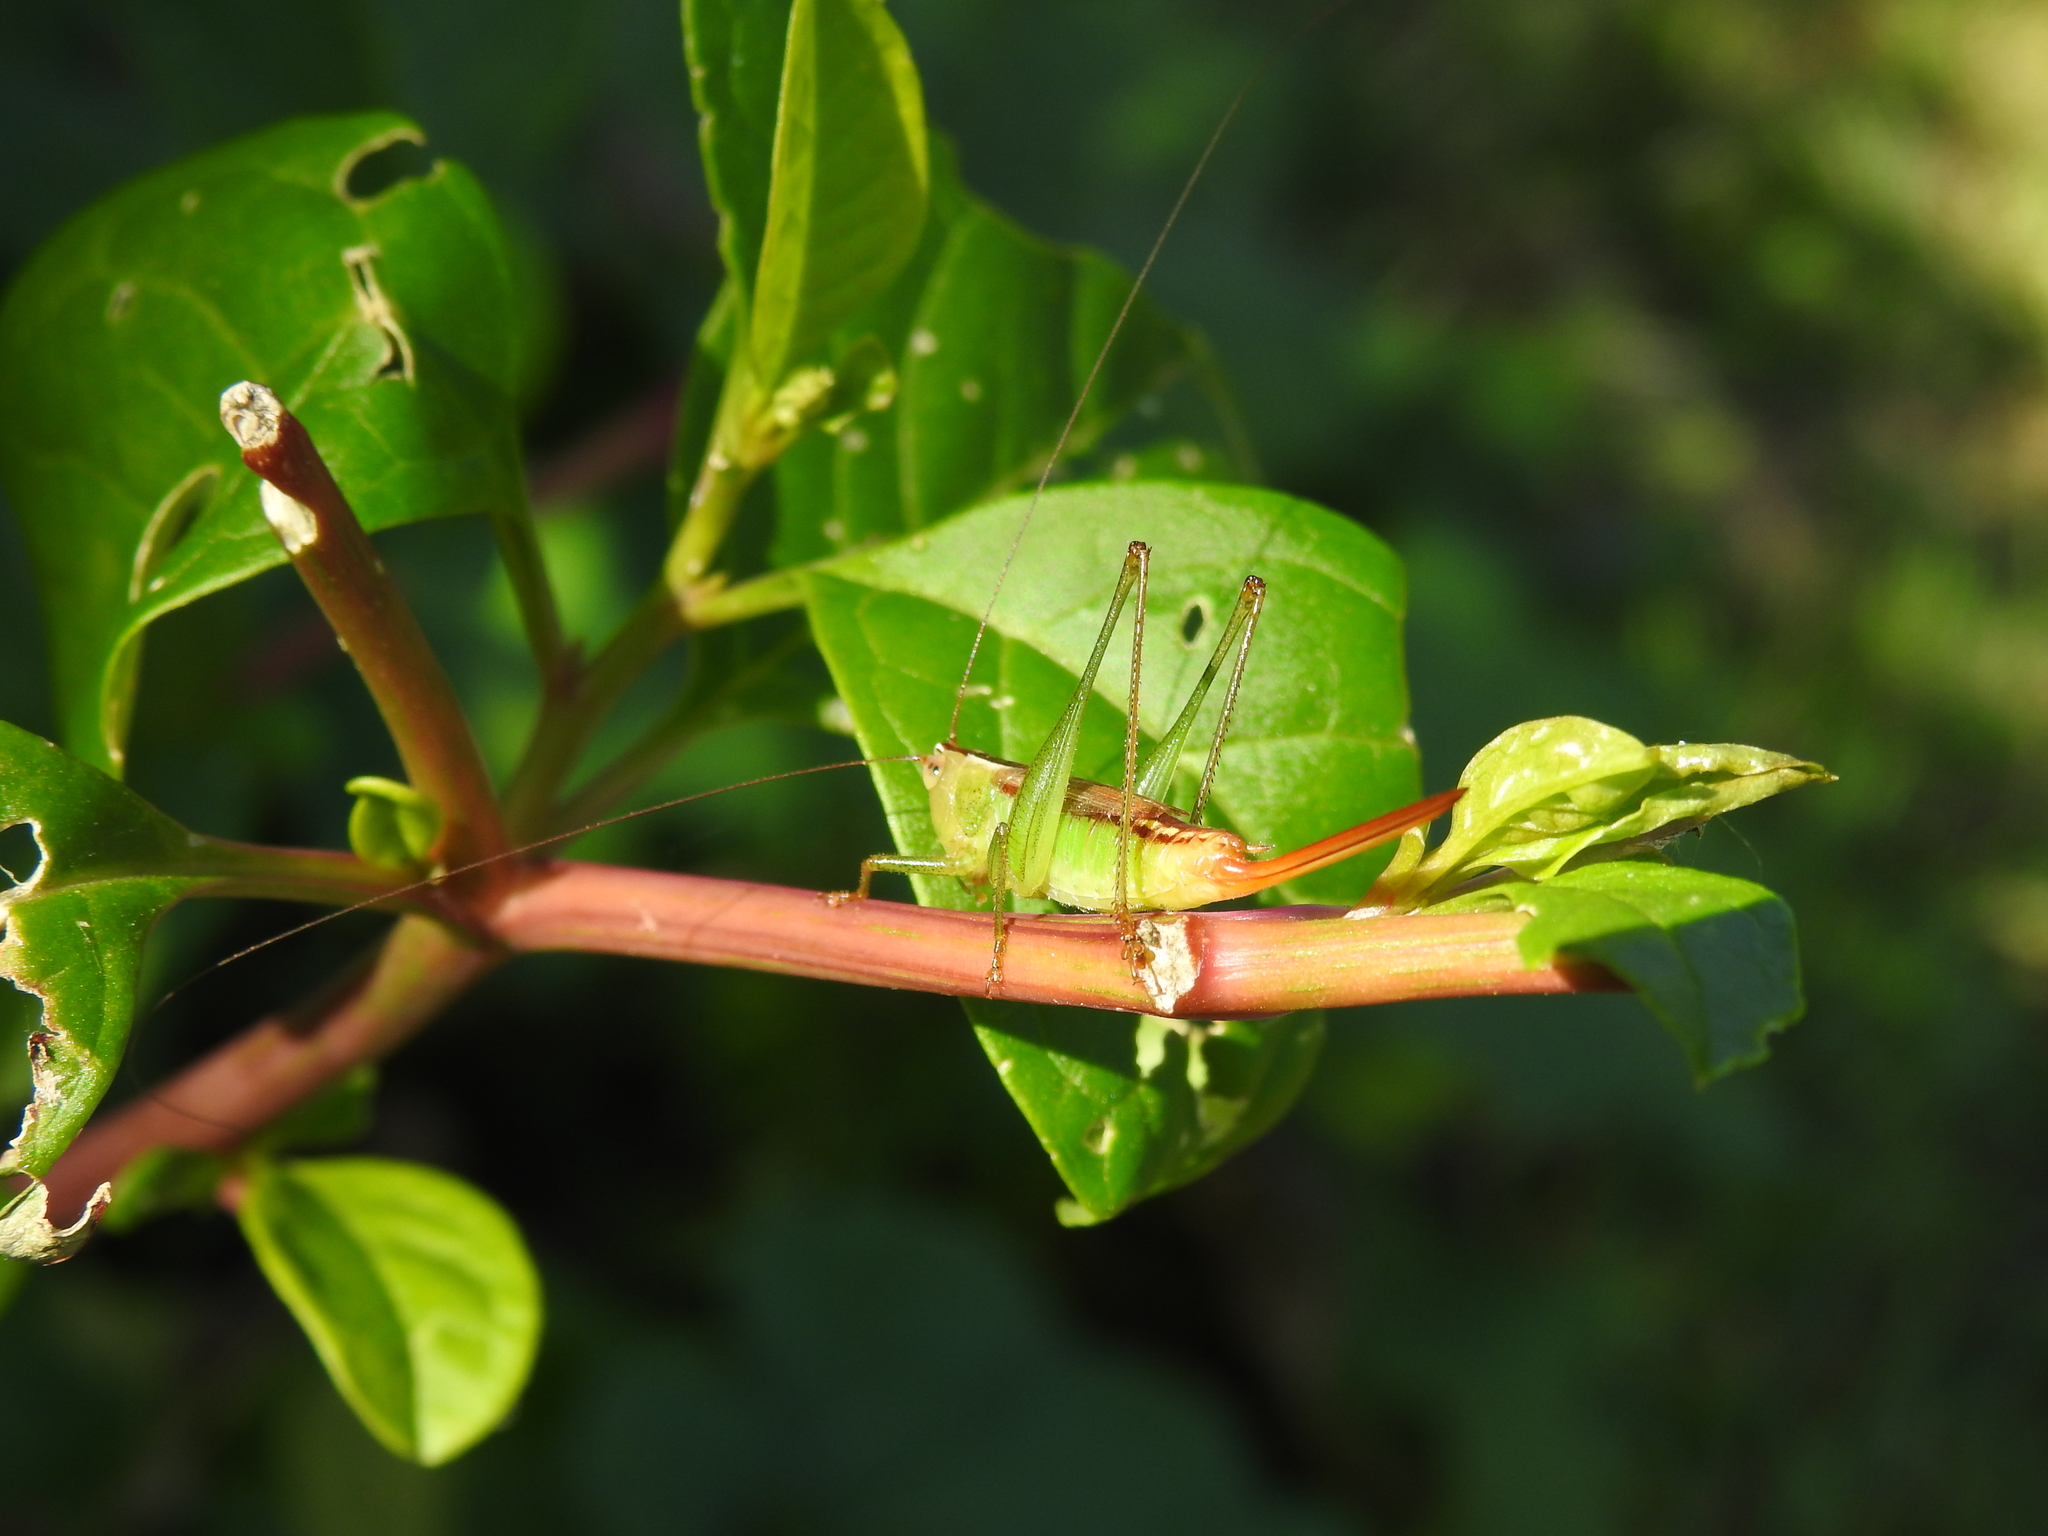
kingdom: Animalia
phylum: Arthropoda
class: Insecta
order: Orthoptera
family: Tettigoniidae
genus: Conocephalus
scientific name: Conocephalus brevipennis
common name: Short-winged meadow katydid
